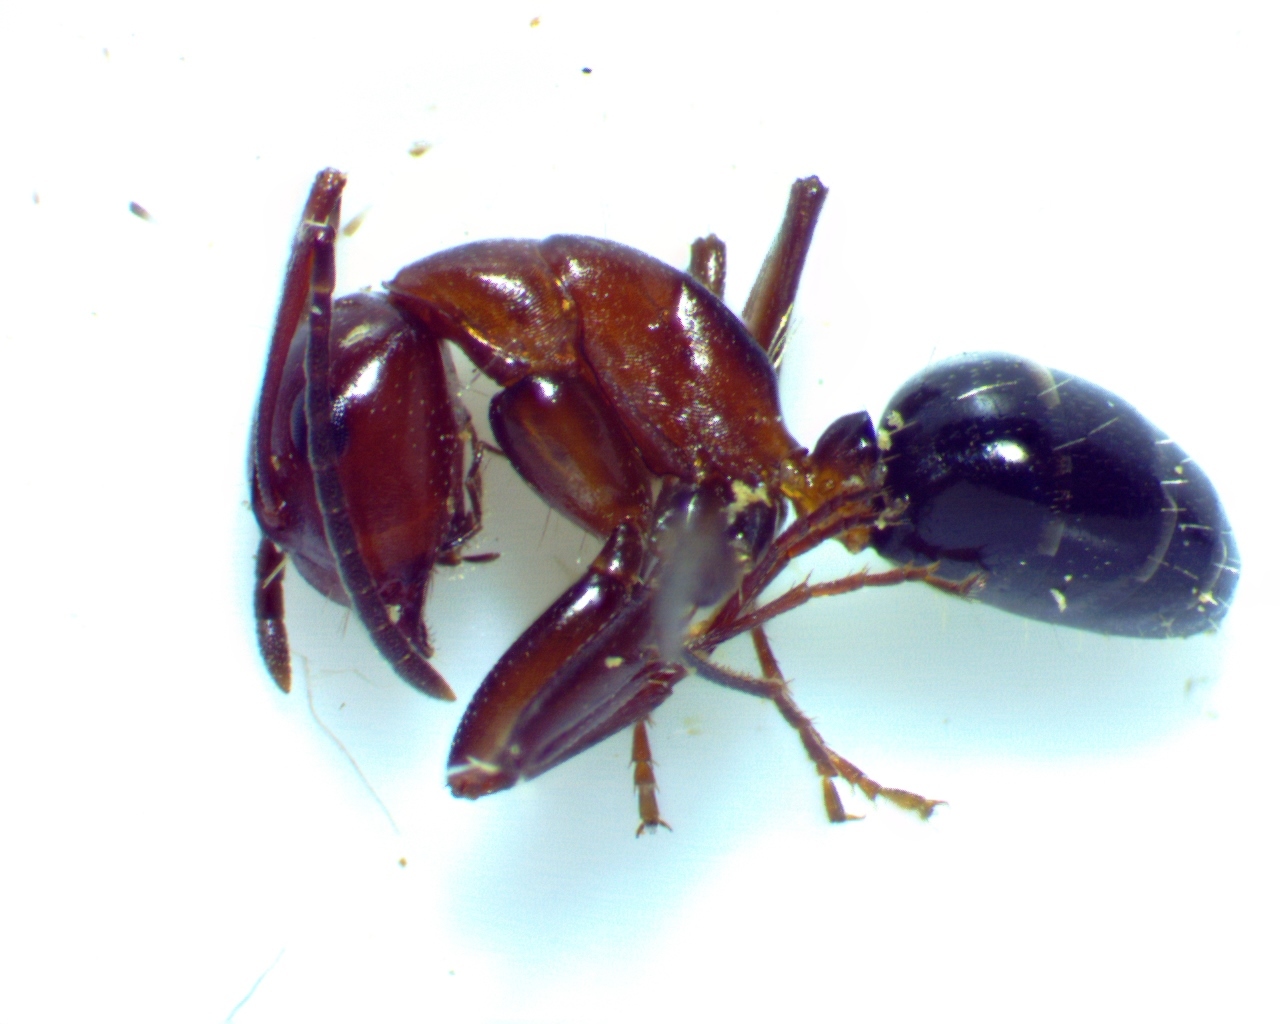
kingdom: Animalia
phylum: Arthropoda
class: Insecta
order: Hymenoptera
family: Formicidae
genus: Camponotus
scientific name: Camponotus decipiens
